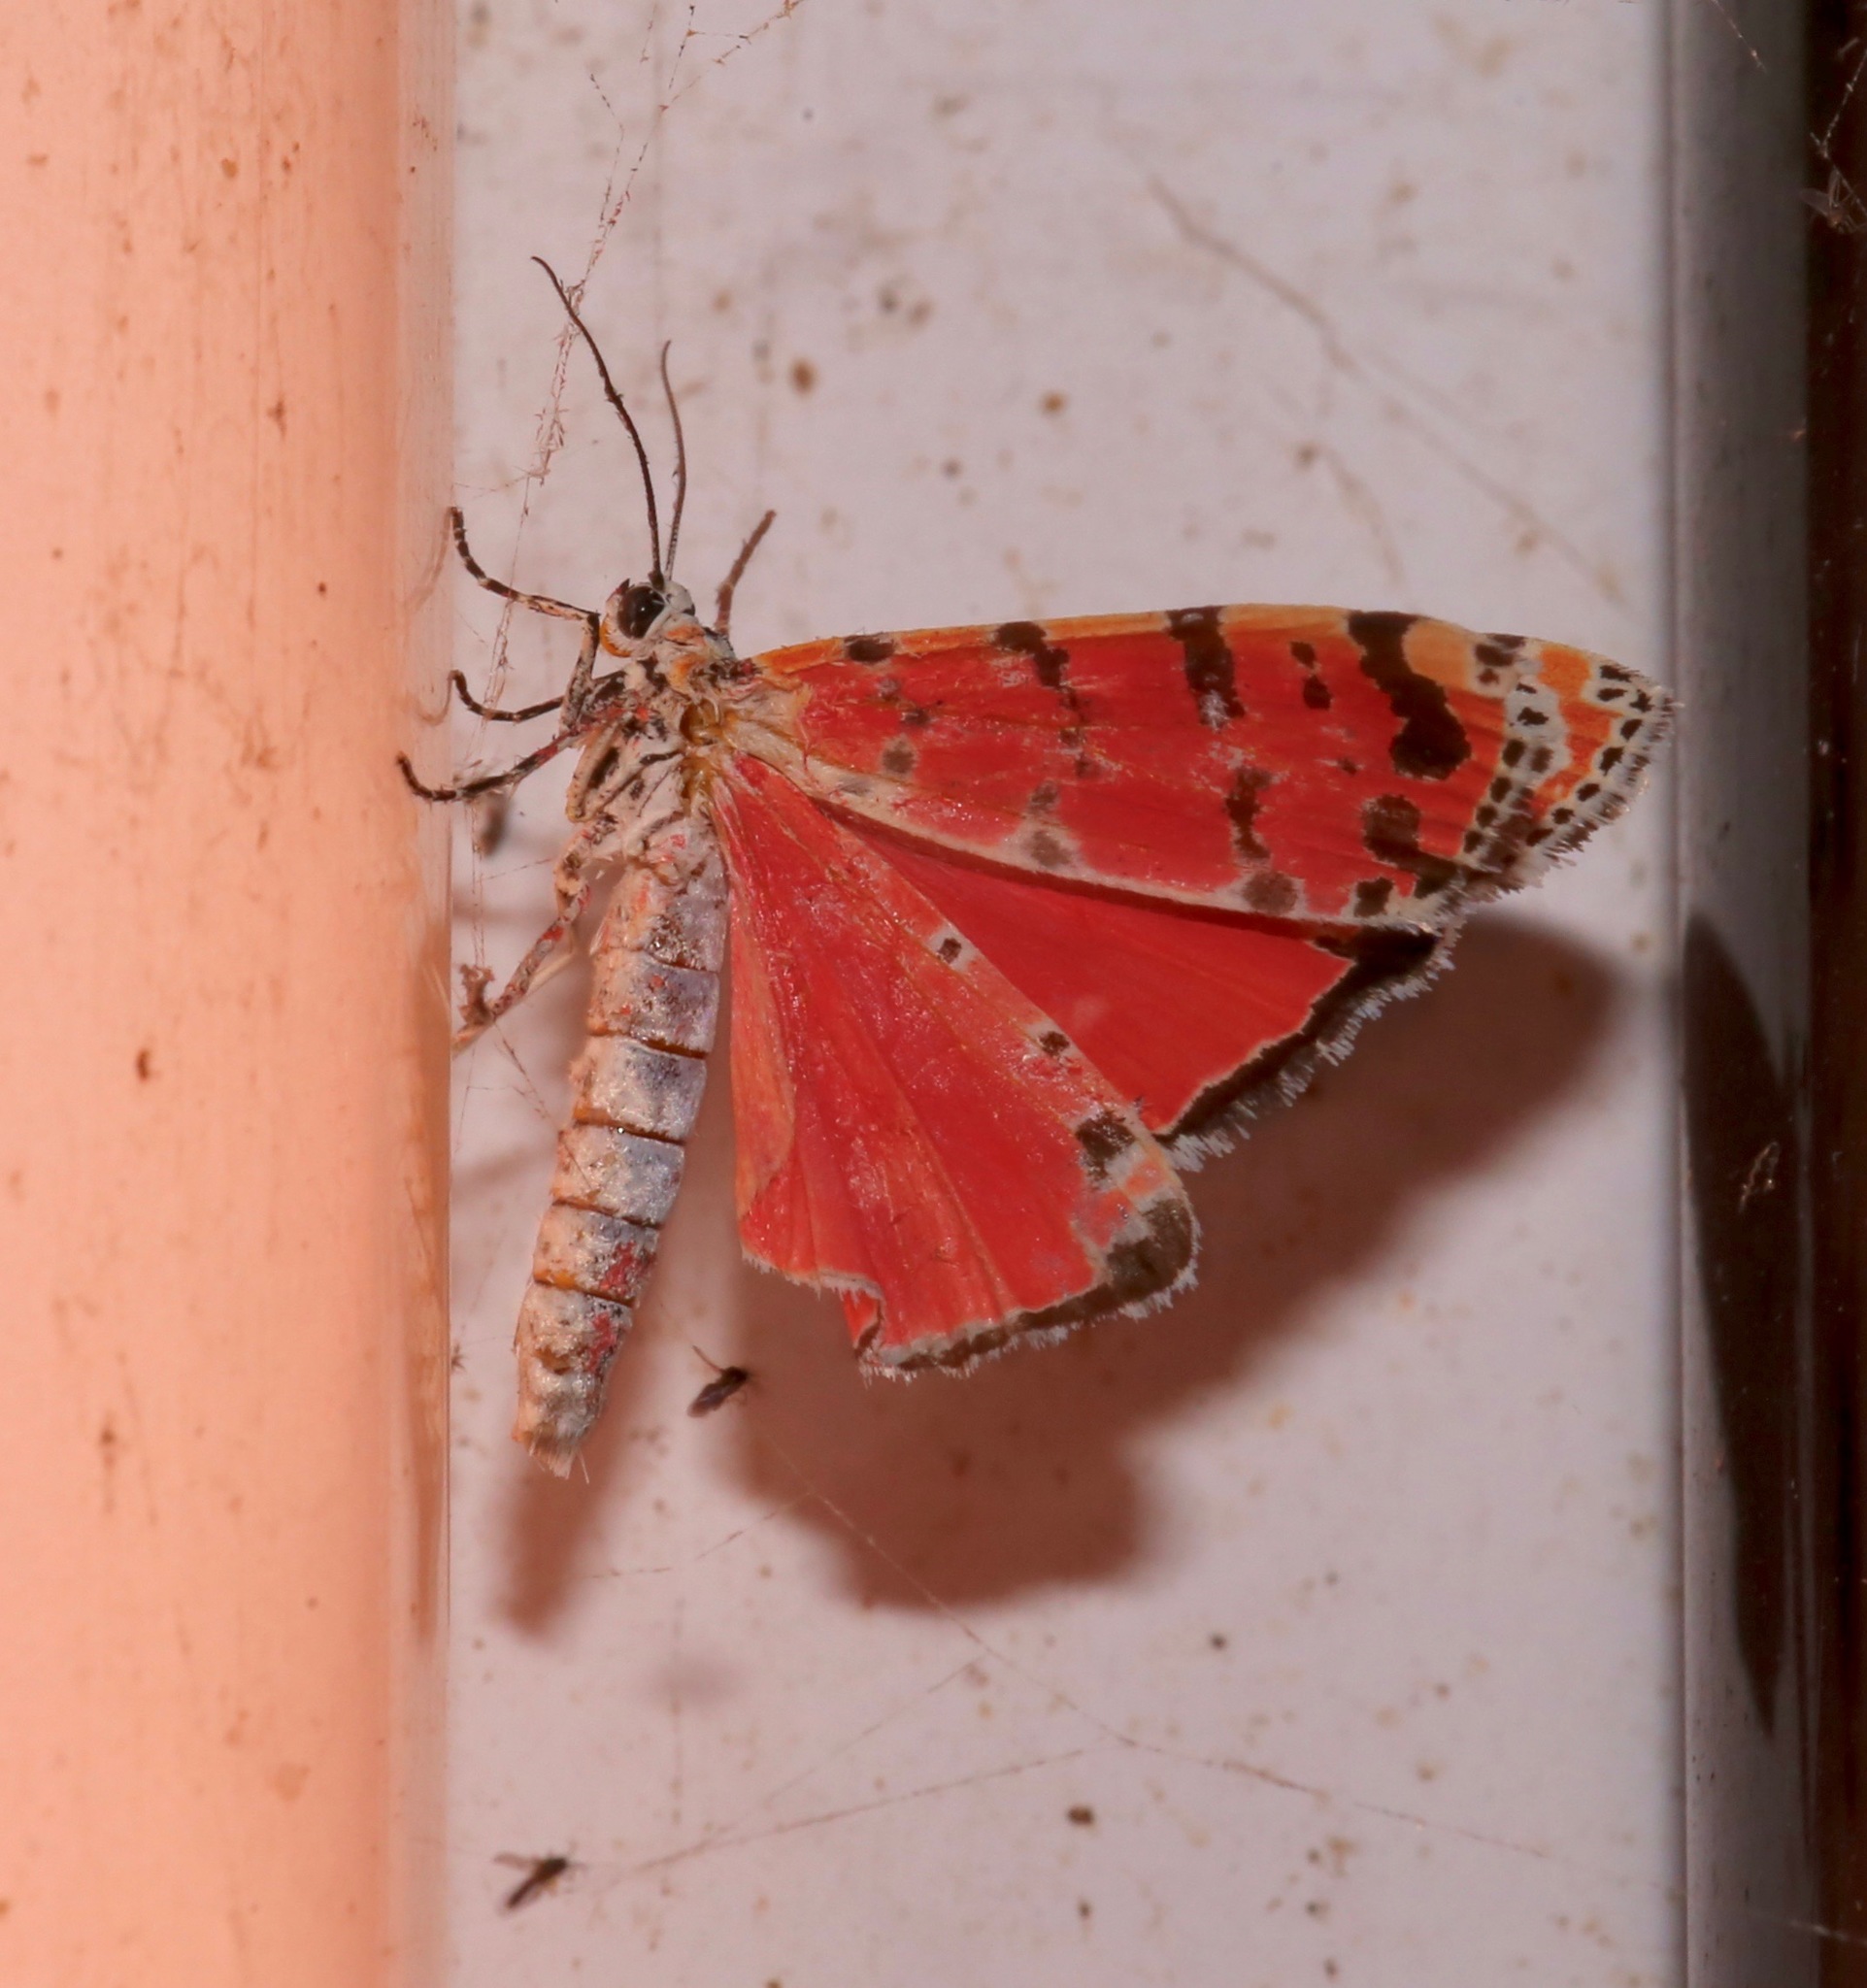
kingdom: Animalia
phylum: Arthropoda
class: Insecta
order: Lepidoptera
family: Erebidae
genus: Utetheisa
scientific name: Utetheisa ornatrix
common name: Beautiful utetheisa
